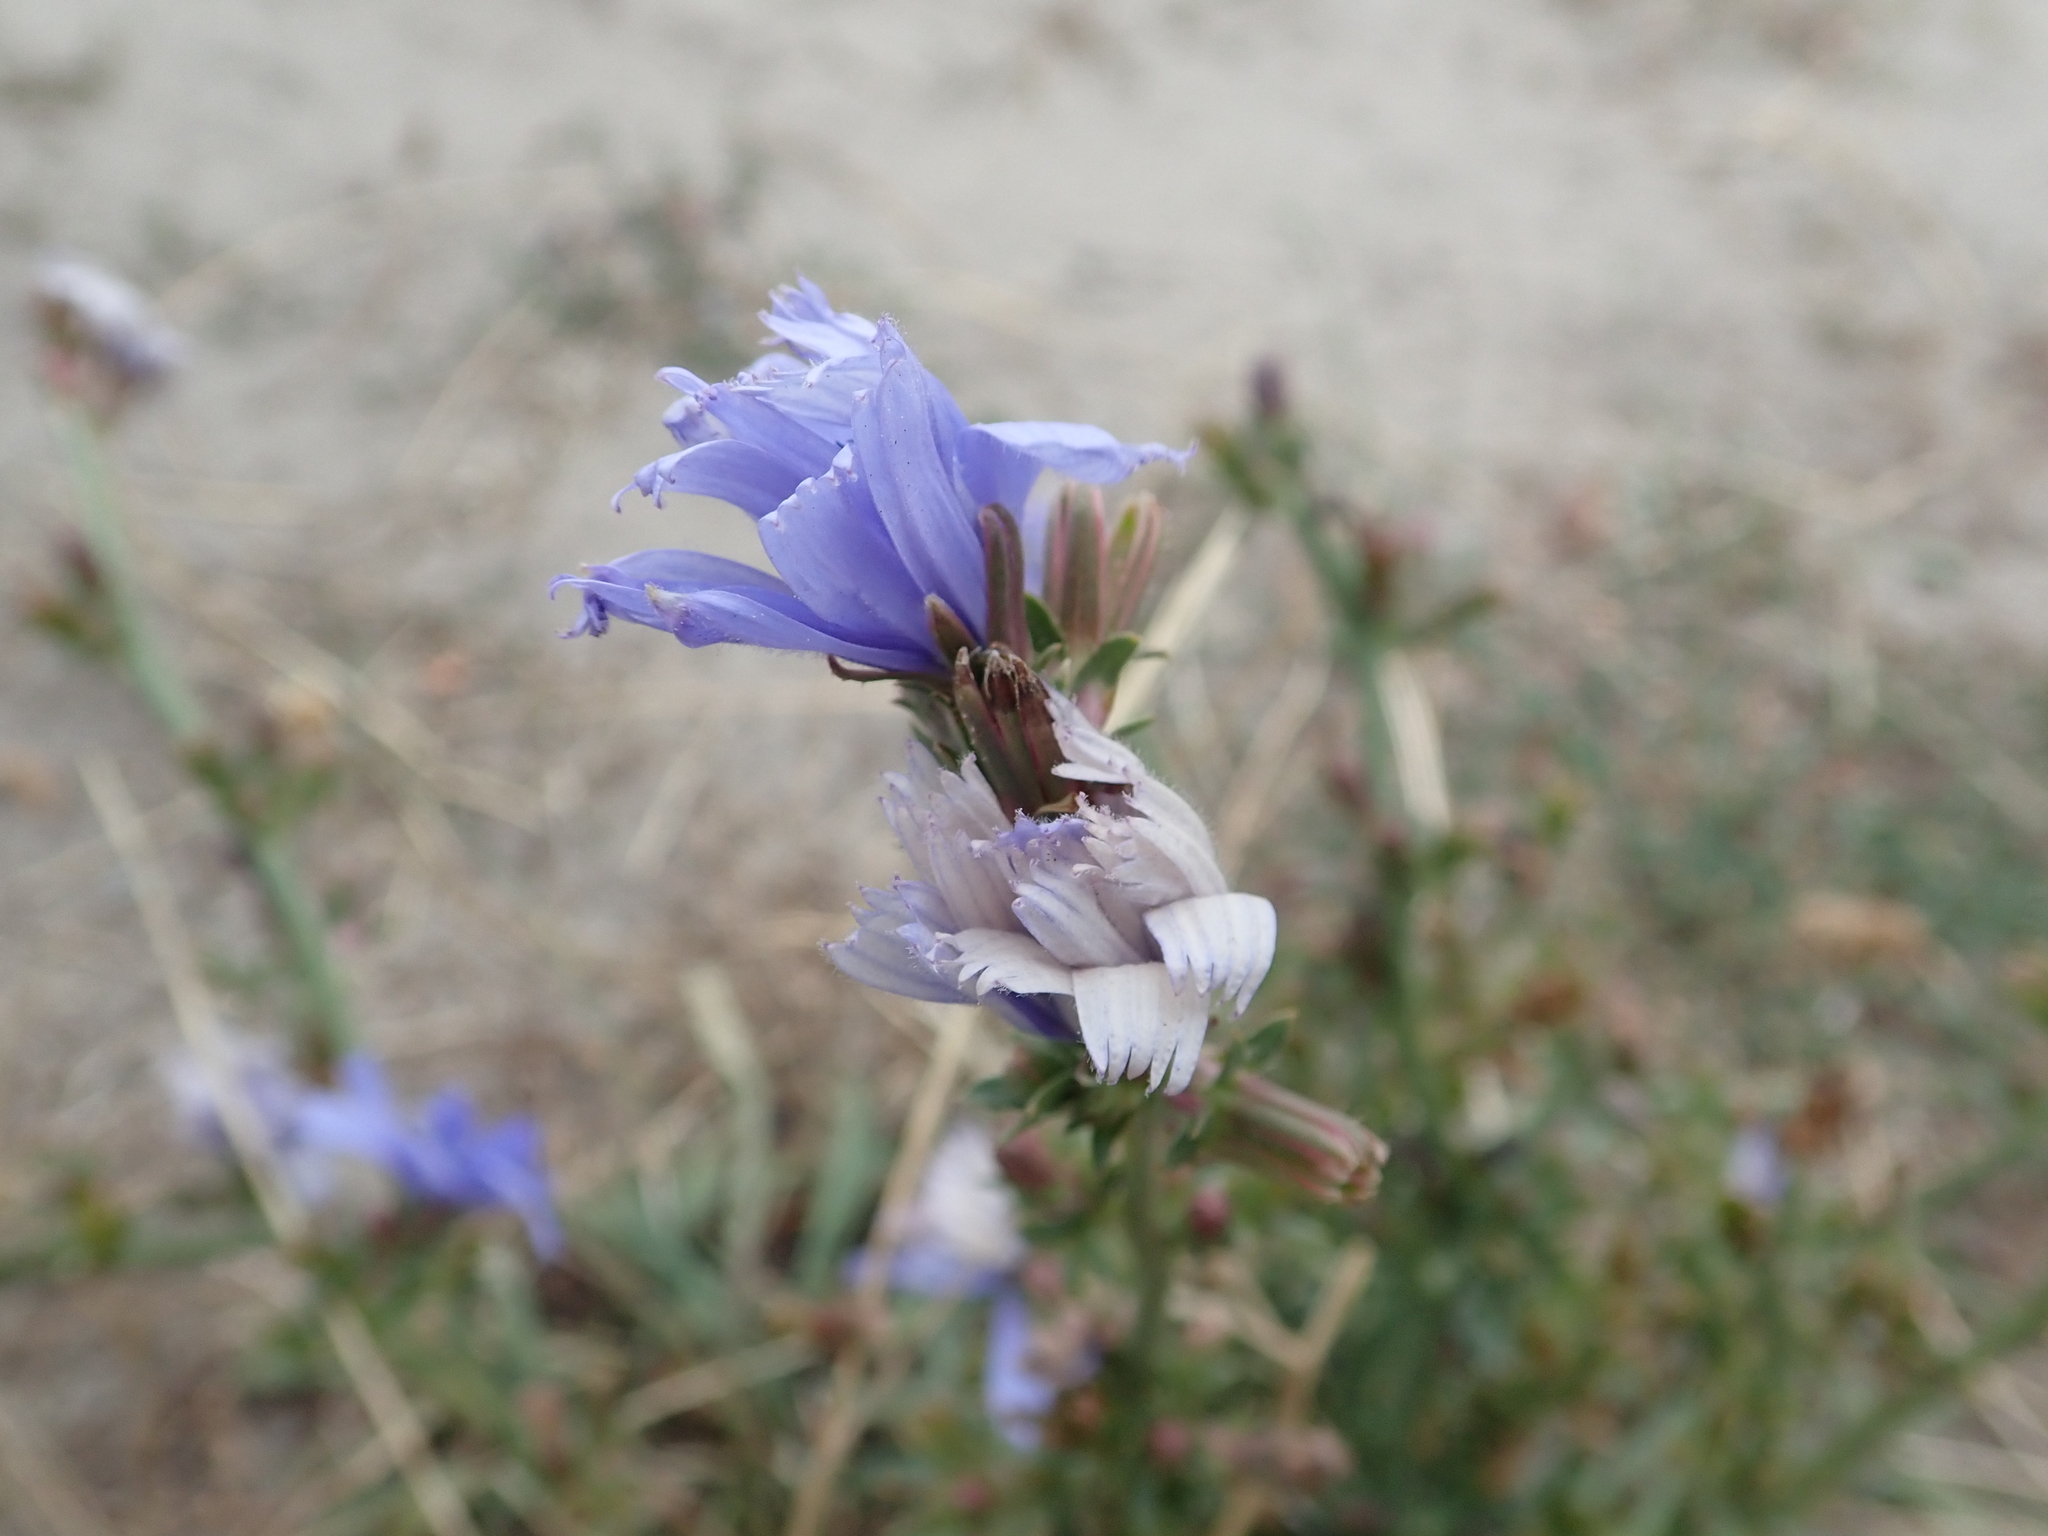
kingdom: Plantae
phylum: Tracheophyta
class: Magnoliopsida
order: Asterales
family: Asteraceae
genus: Cichorium
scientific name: Cichorium intybus
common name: Chicory
